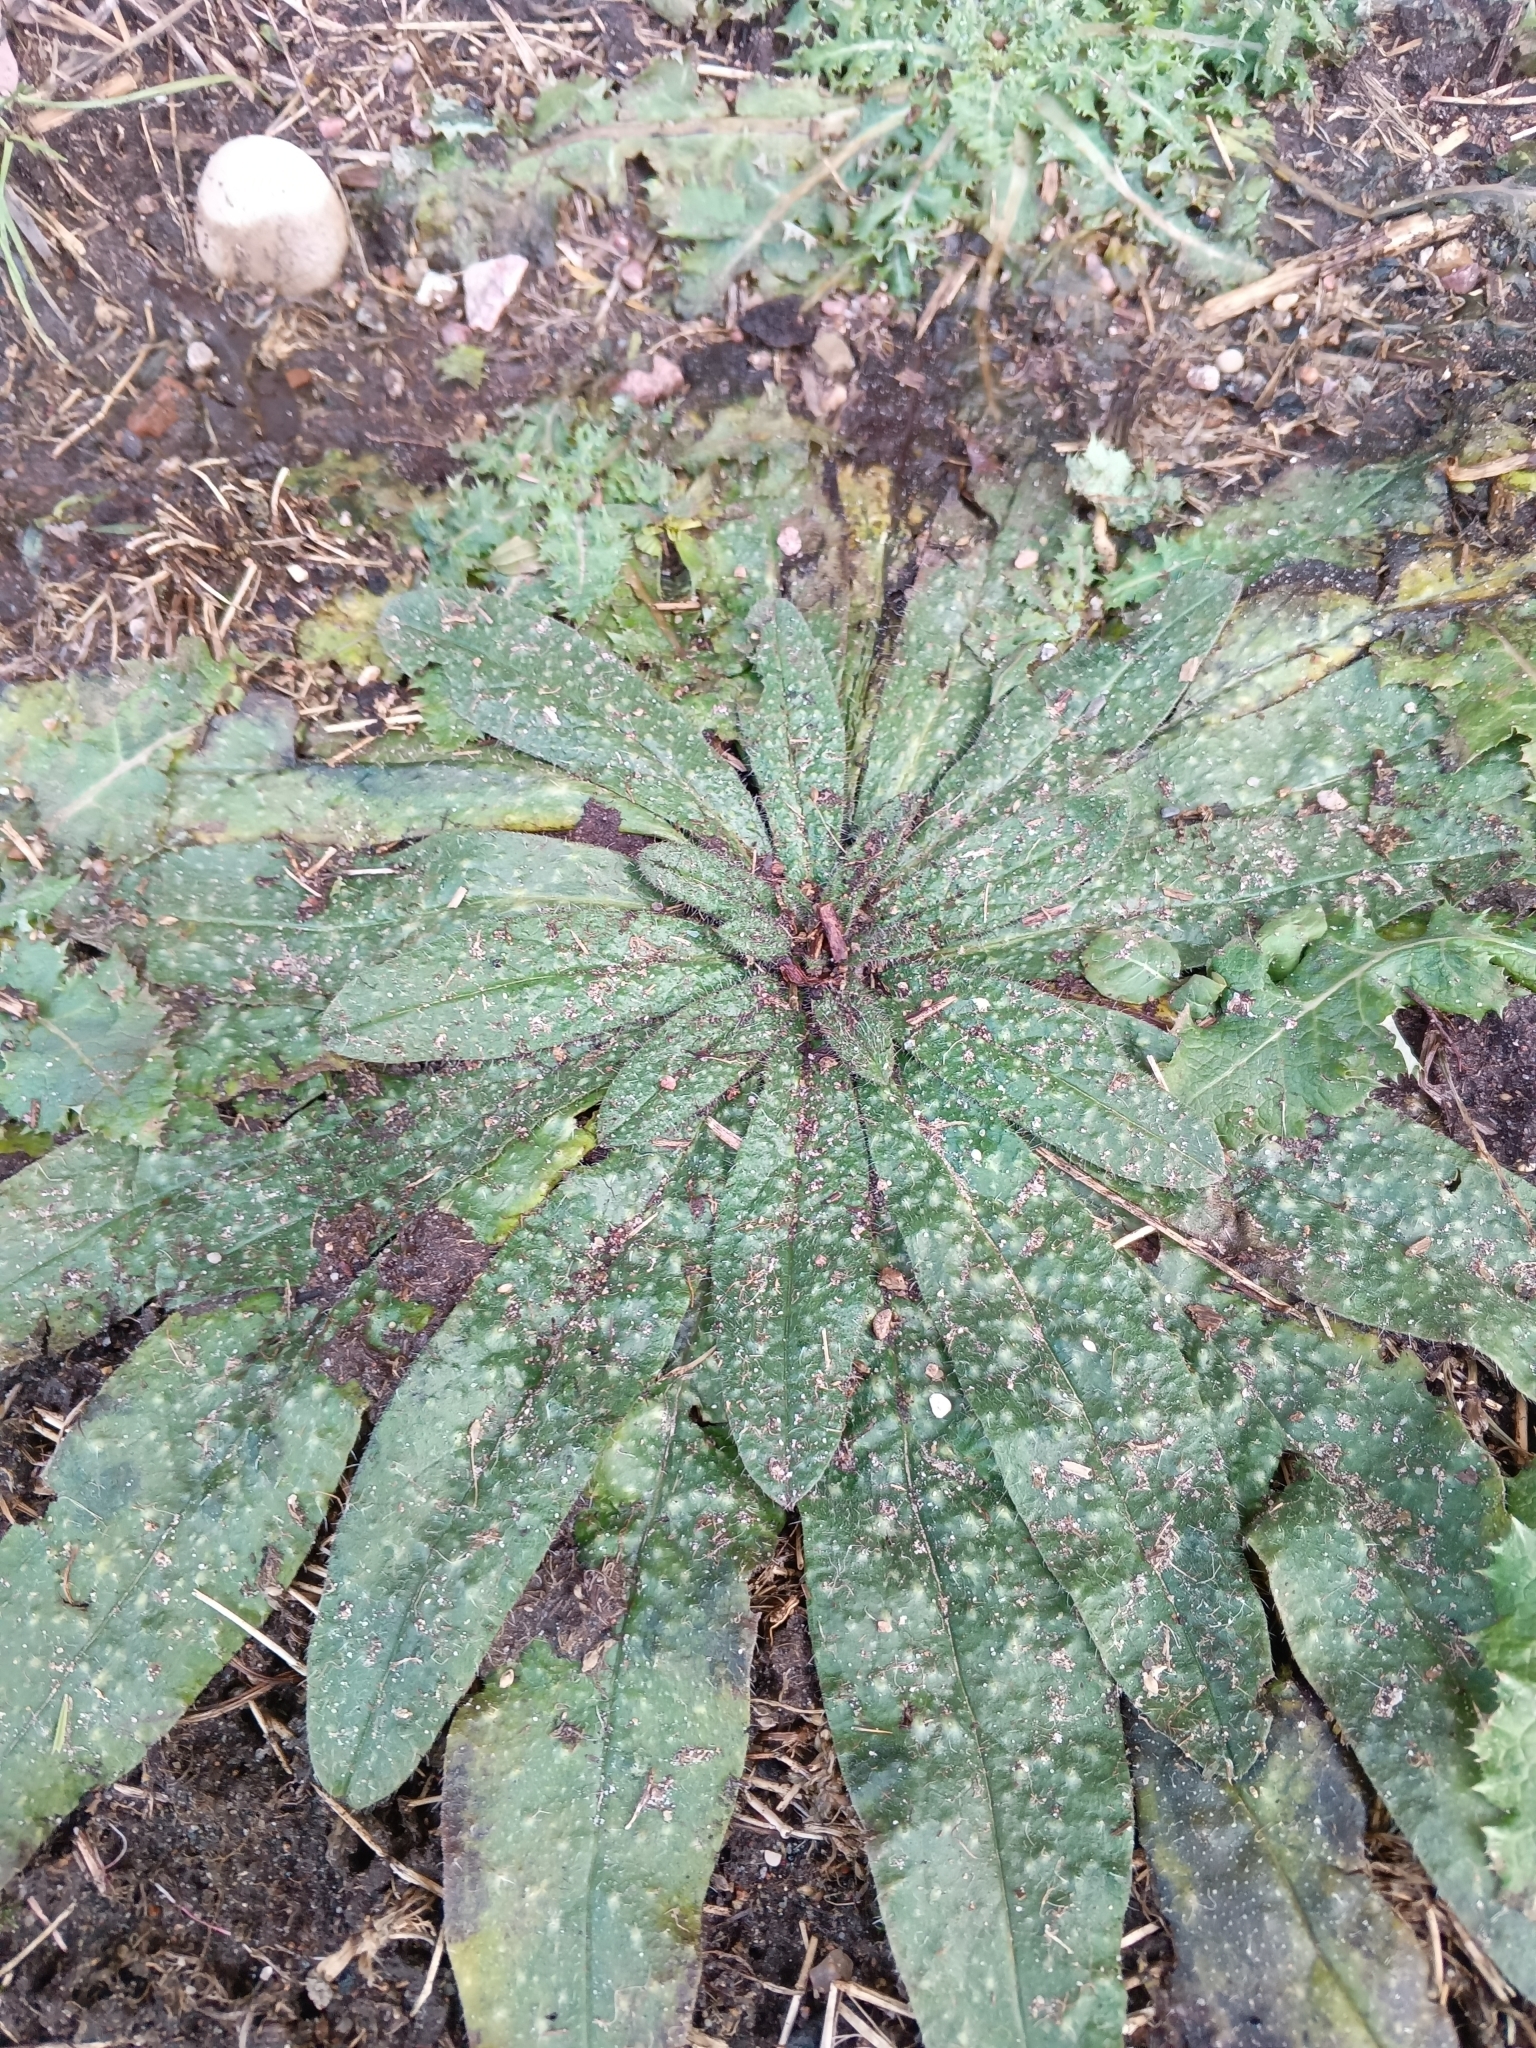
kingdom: Plantae
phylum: Tracheophyta
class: Magnoliopsida
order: Boraginales
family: Boraginaceae
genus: Echium
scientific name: Echium vulgare
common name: Common viper's bugloss
